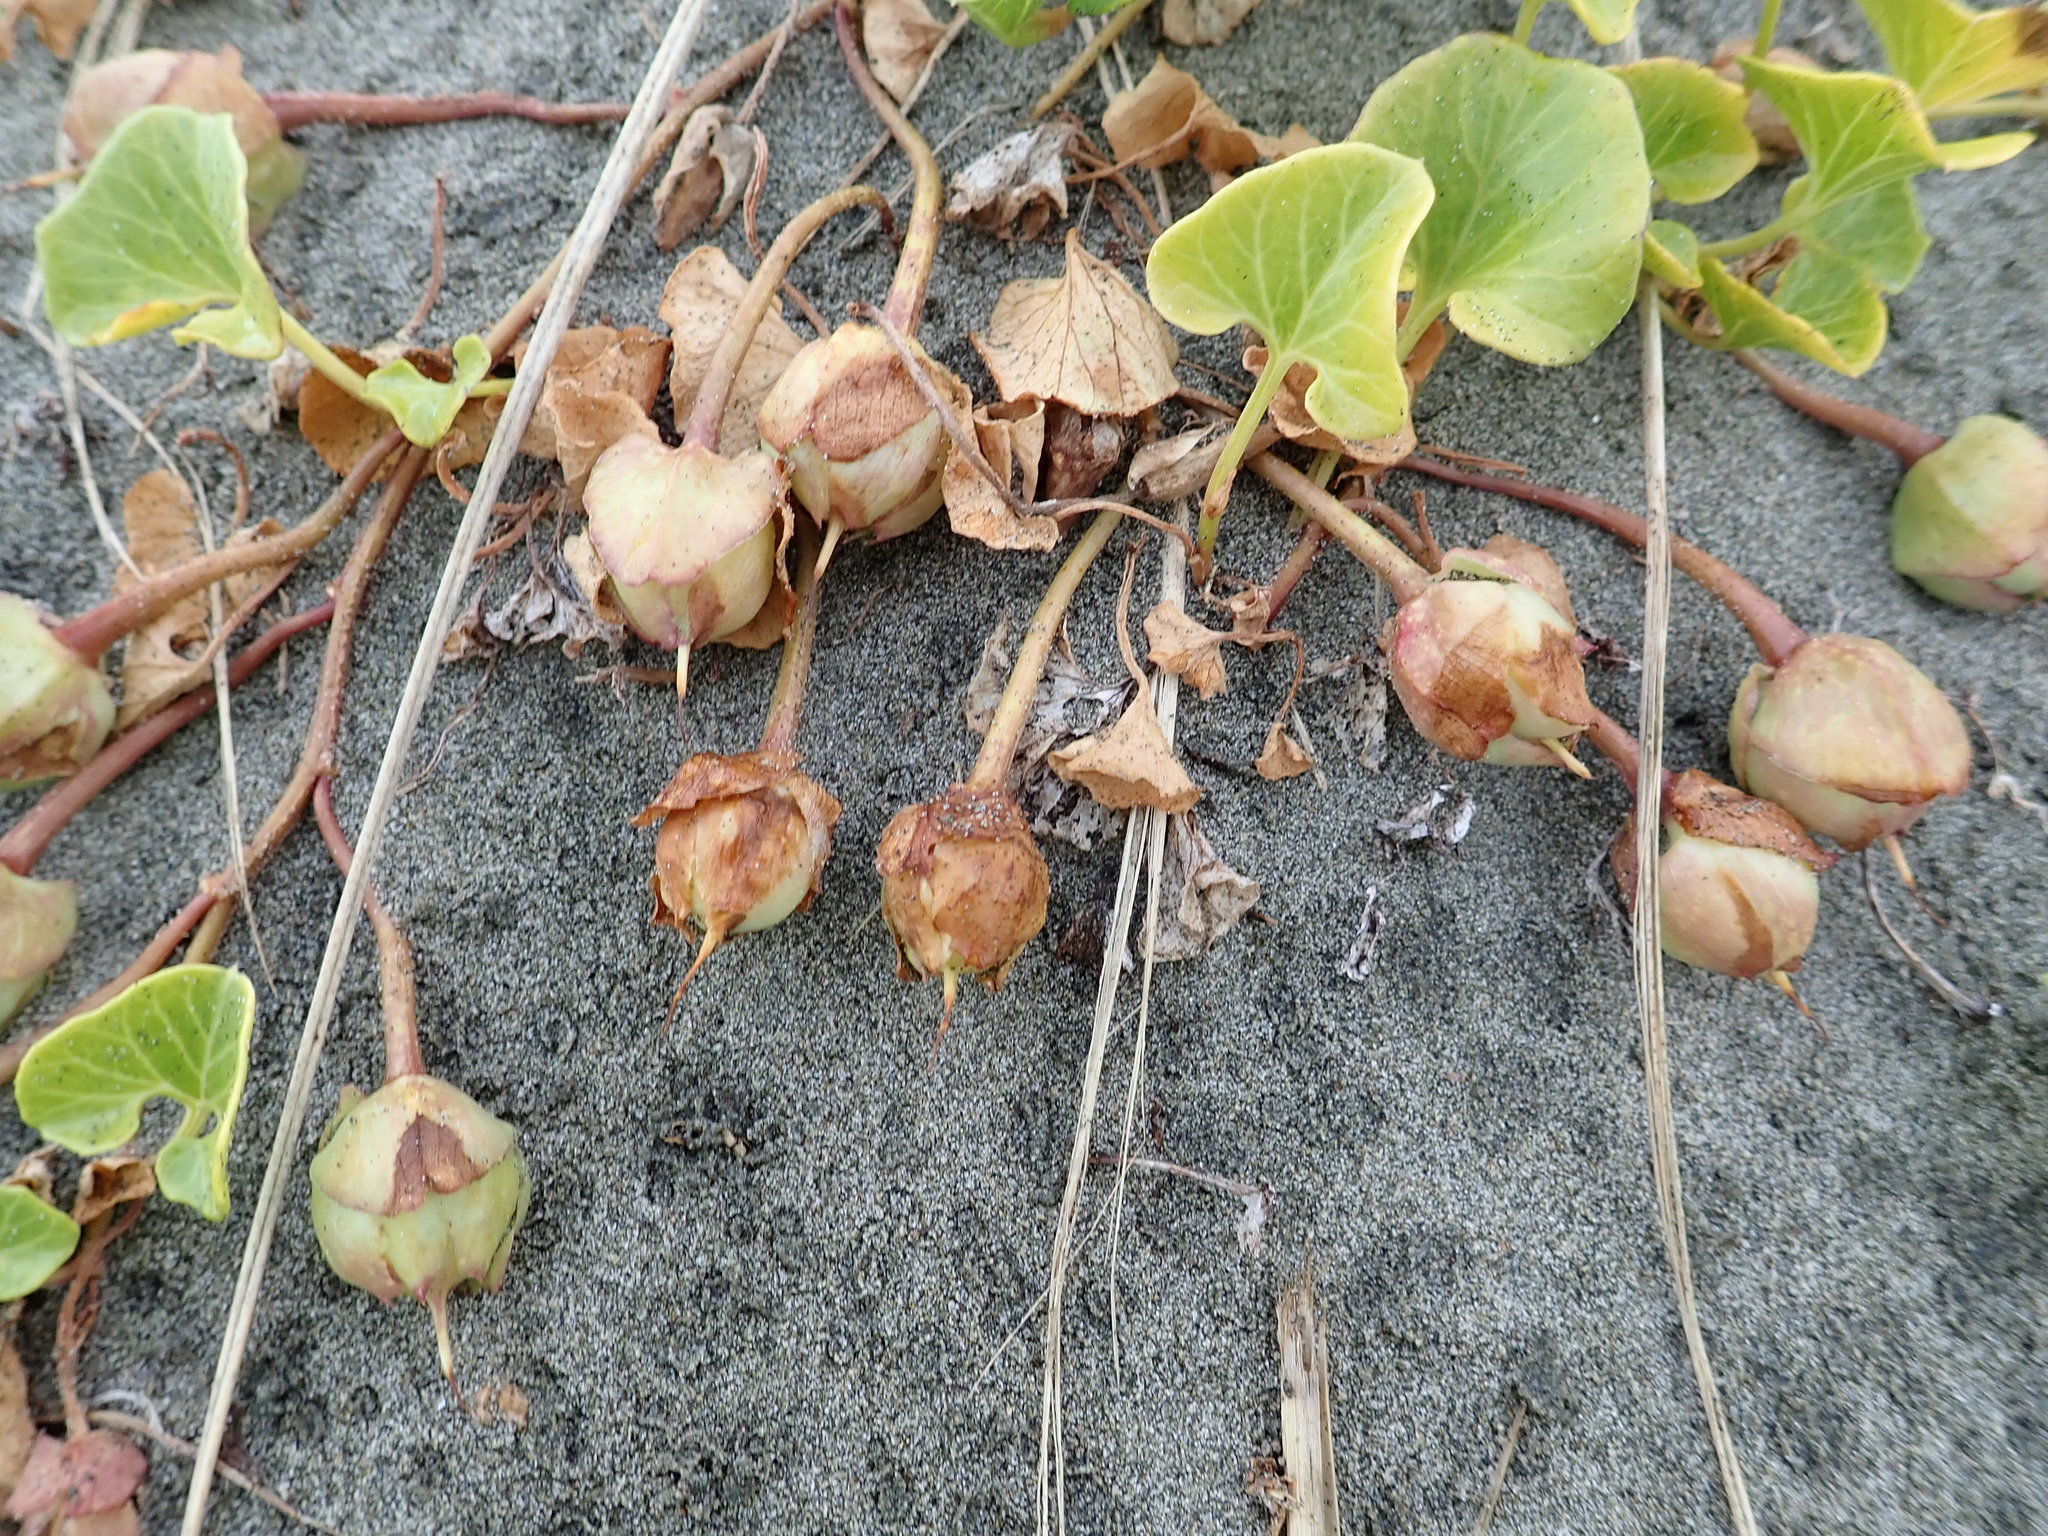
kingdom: Plantae
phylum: Tracheophyta
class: Magnoliopsida
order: Solanales
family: Convolvulaceae
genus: Calystegia
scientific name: Calystegia soldanella
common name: Sea bindweed
